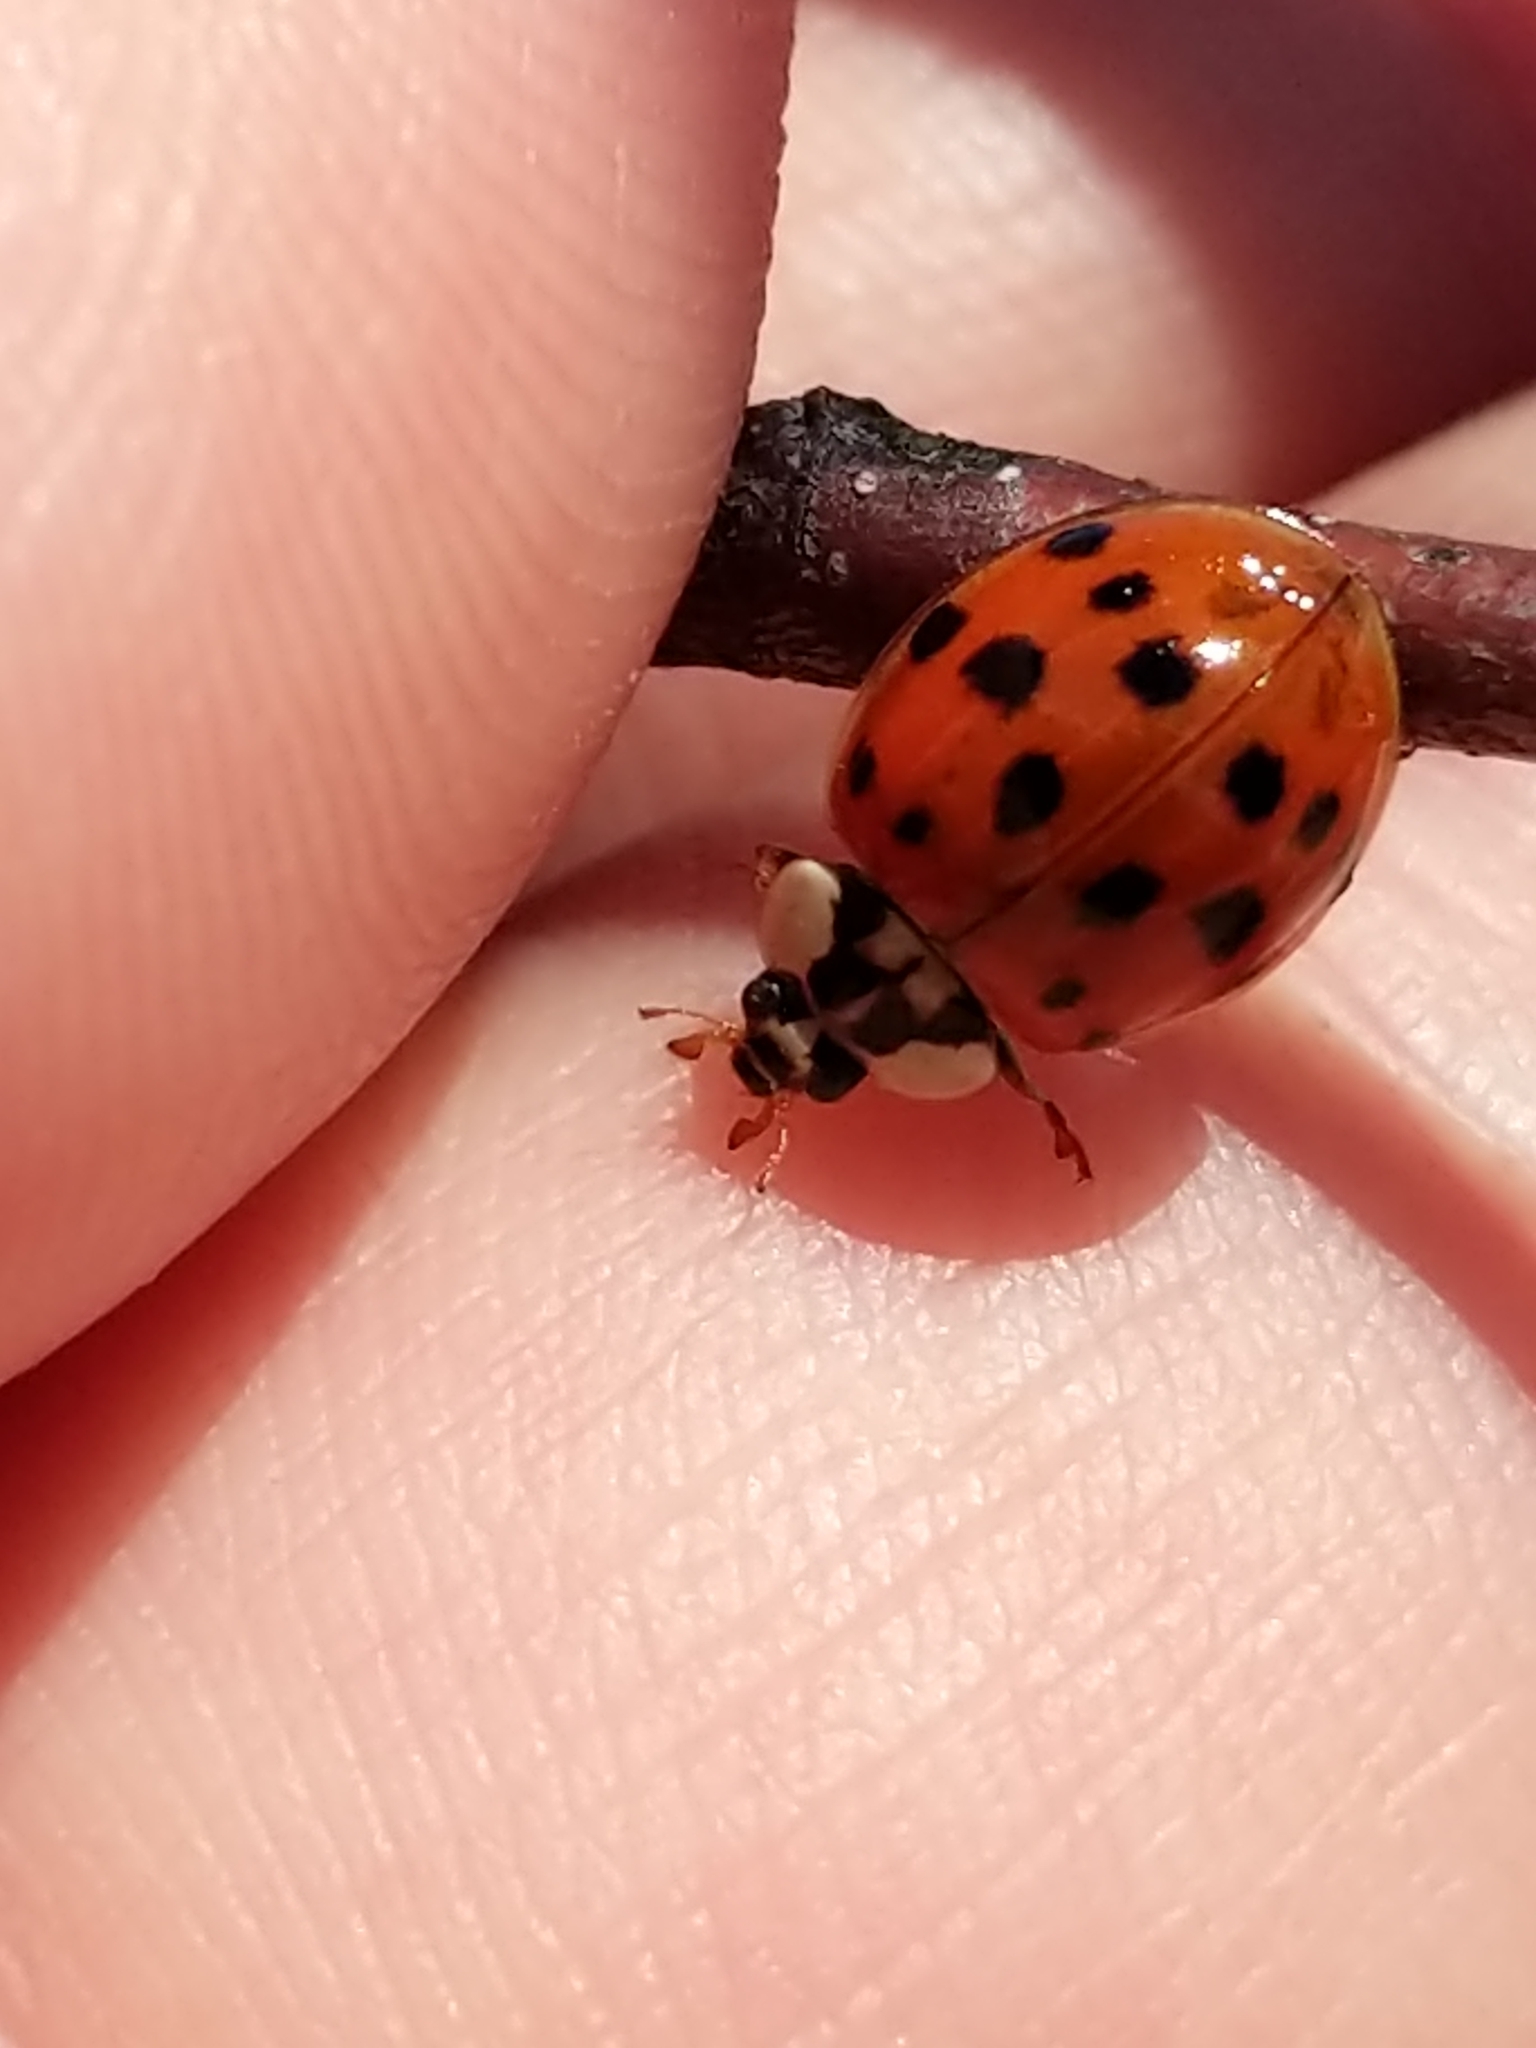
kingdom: Animalia
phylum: Arthropoda
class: Insecta
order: Coleoptera
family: Coccinellidae
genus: Harmonia
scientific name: Harmonia axyridis
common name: Harlequin ladybird
